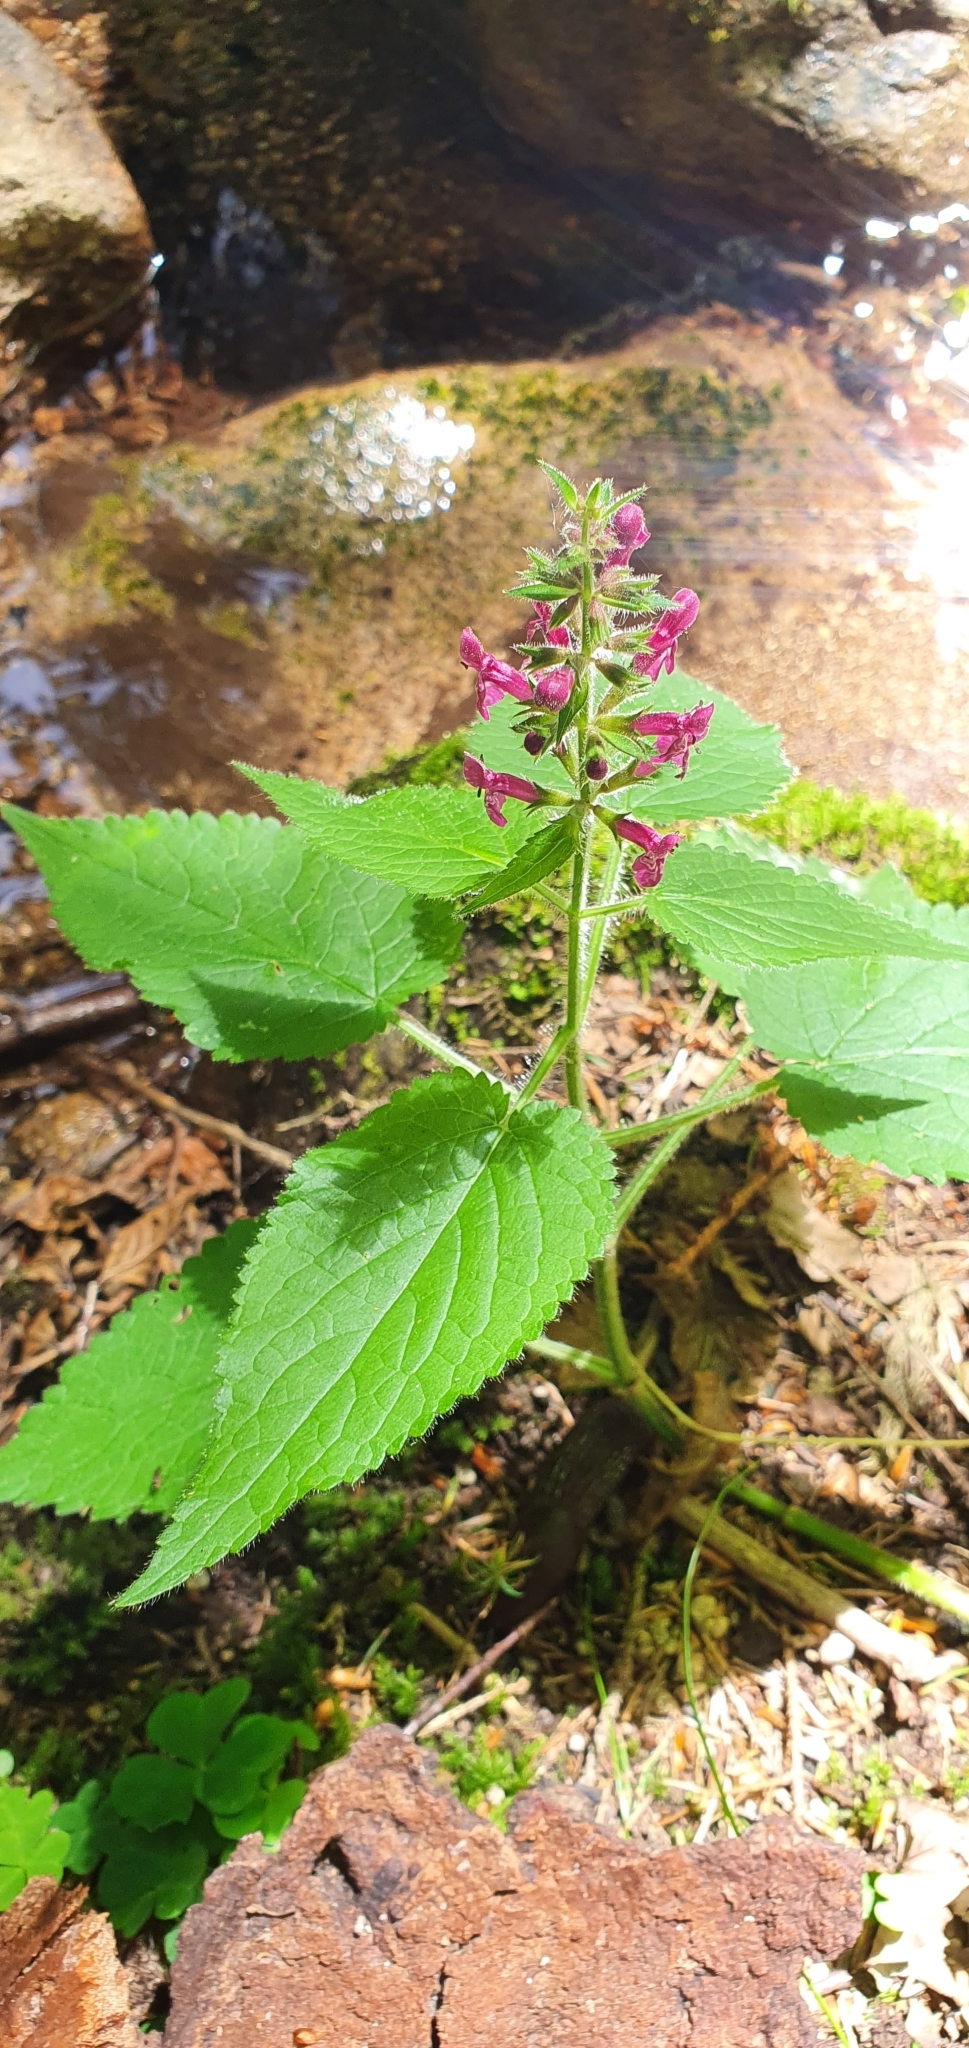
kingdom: Plantae
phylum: Tracheophyta
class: Magnoliopsida
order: Lamiales
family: Lamiaceae
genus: Stachys
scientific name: Stachys sylvatica
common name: Hedge woundwort
